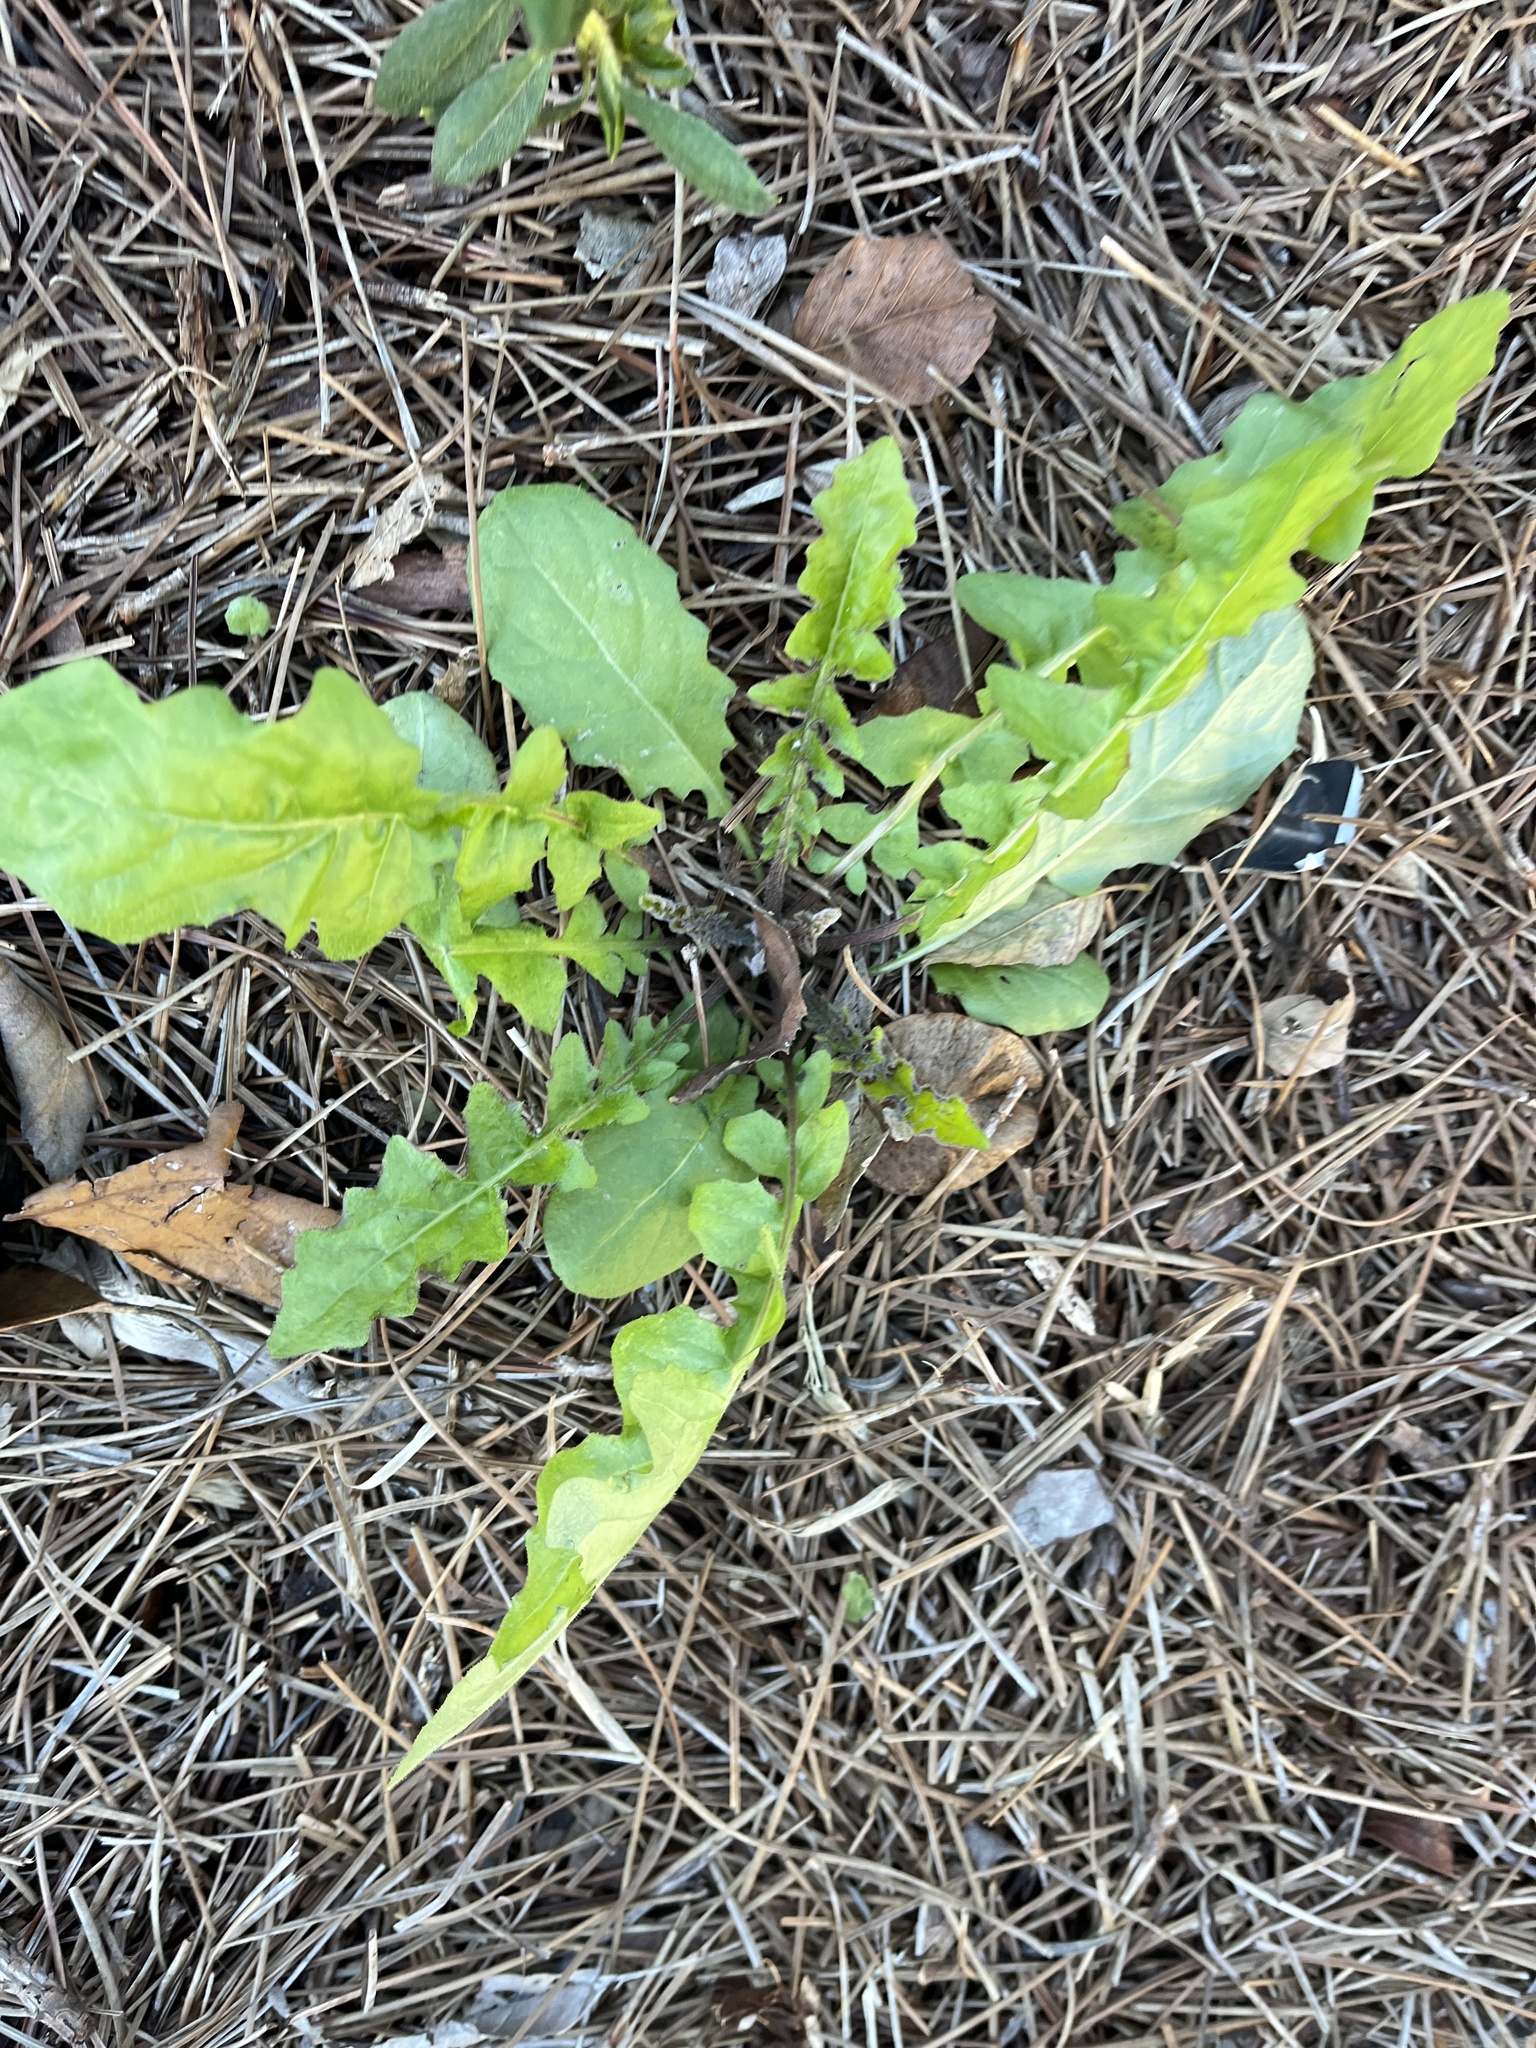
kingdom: Plantae
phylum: Tracheophyta
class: Magnoliopsida
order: Asterales
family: Asteraceae
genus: Youngia
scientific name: Youngia japonica
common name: Oriental false hawksbeard
